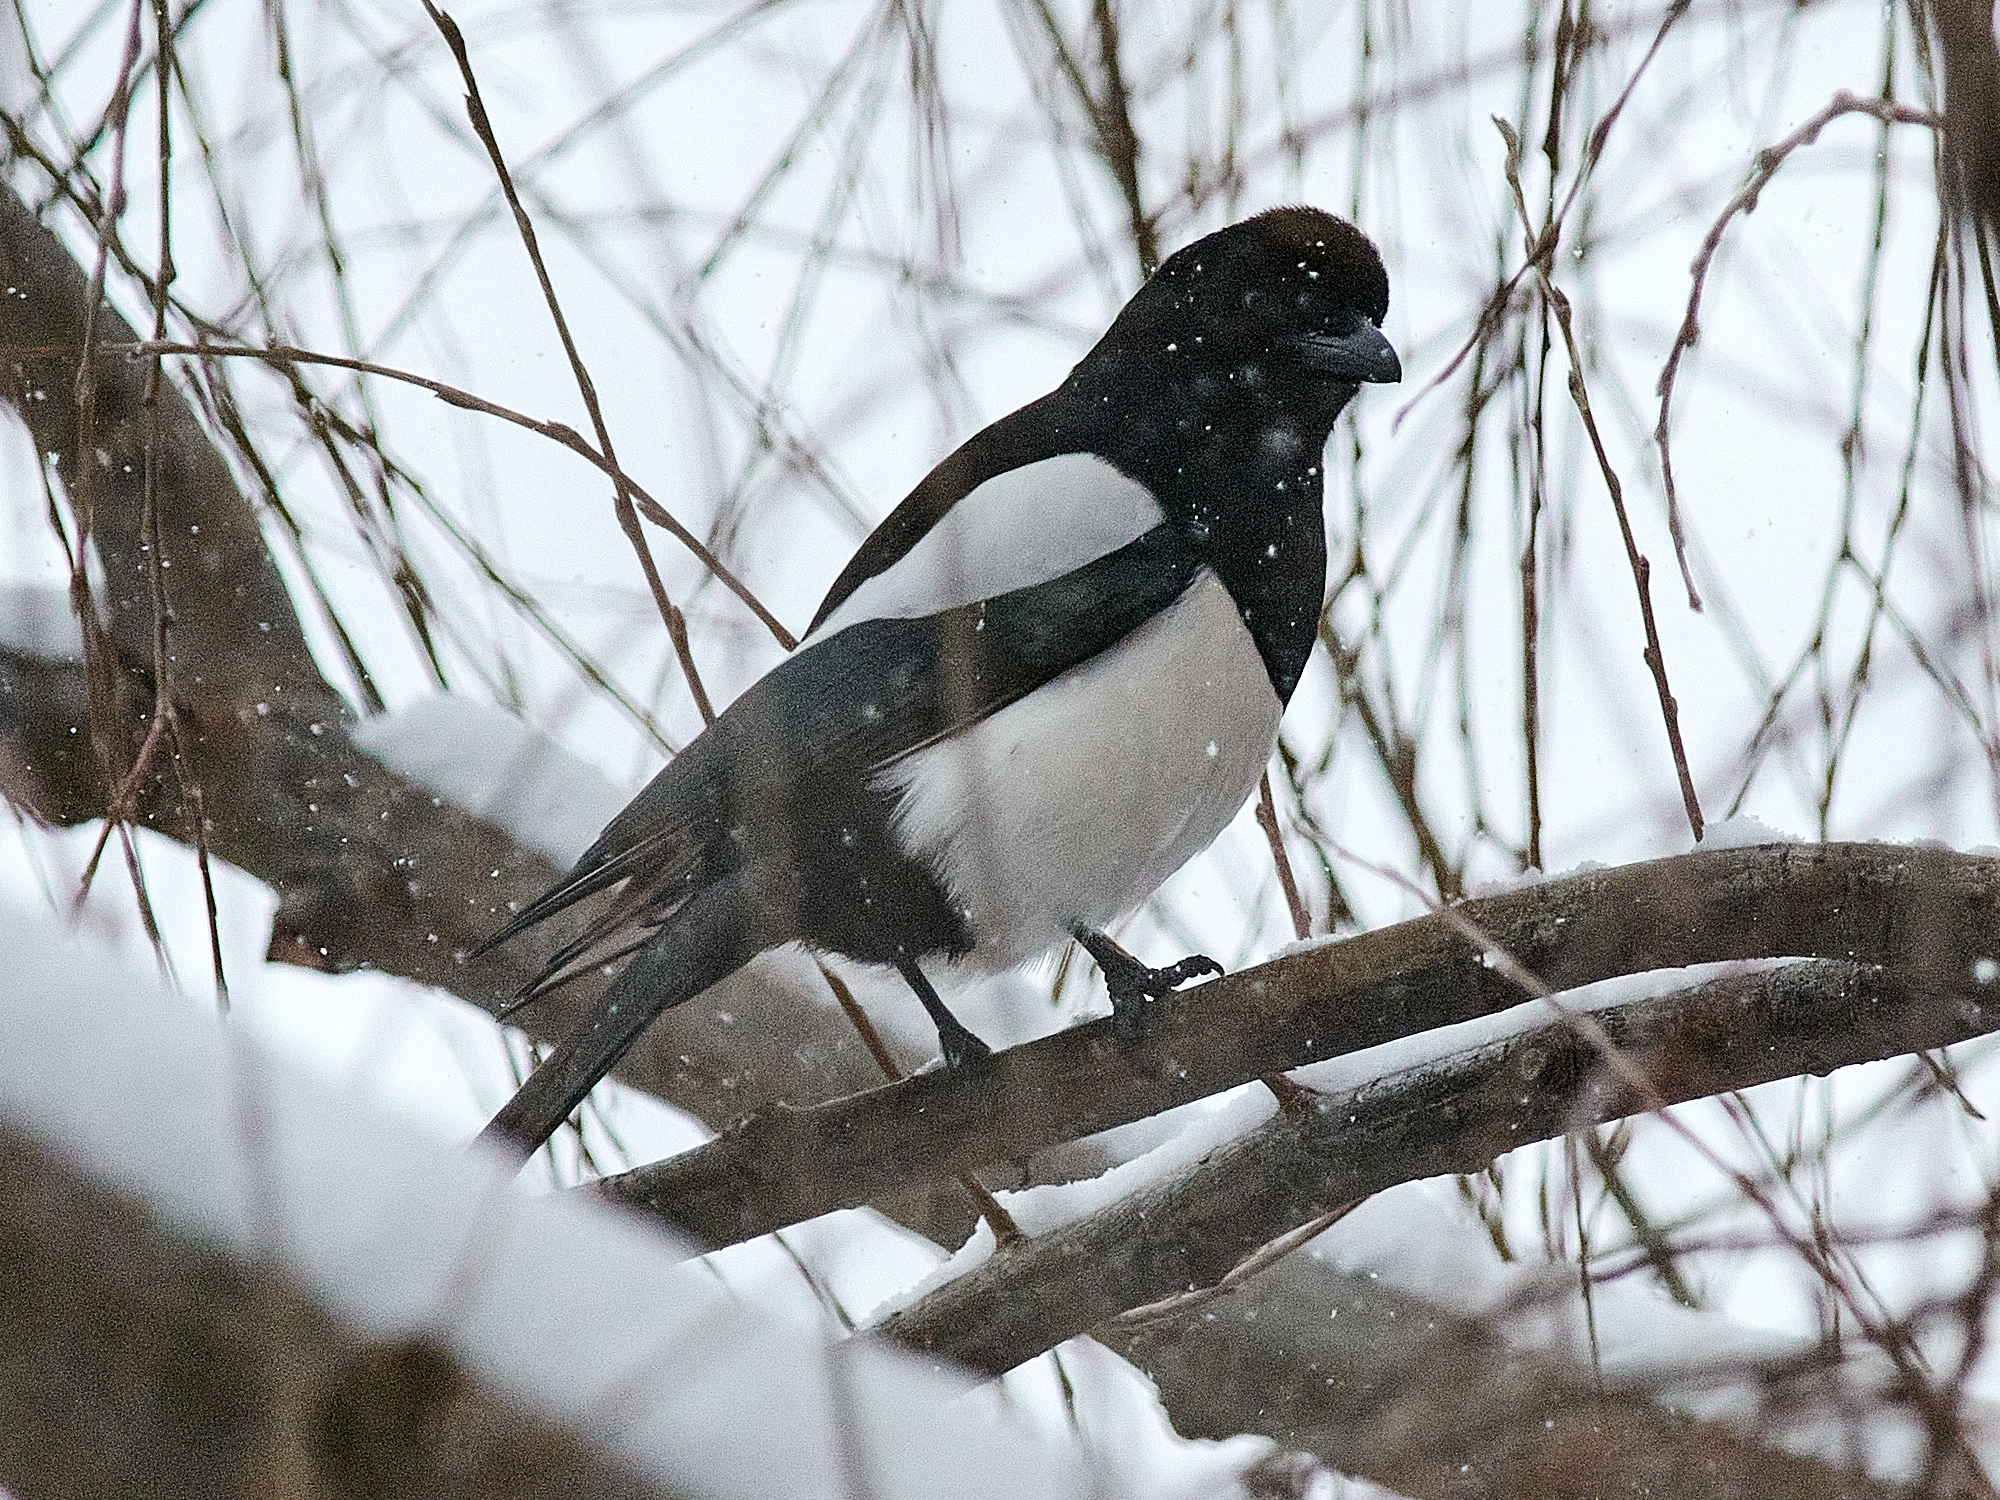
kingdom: Animalia
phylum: Chordata
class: Aves
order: Passeriformes
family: Corvidae
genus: Pica
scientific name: Pica pica
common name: Eurasian magpie
